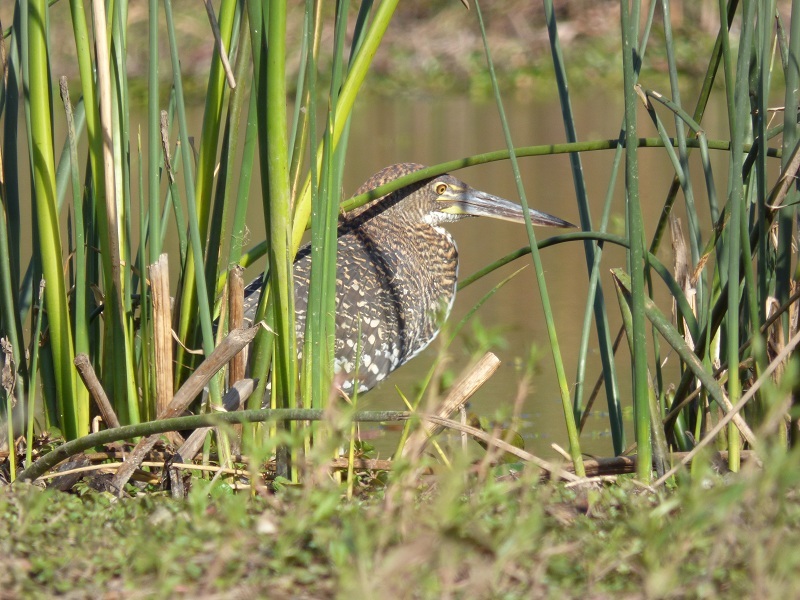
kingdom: Animalia
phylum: Chordata
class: Aves
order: Pelecaniformes
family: Ardeidae
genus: Tigrisoma
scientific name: Tigrisoma lineatum
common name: Rufescent tiger-heron
